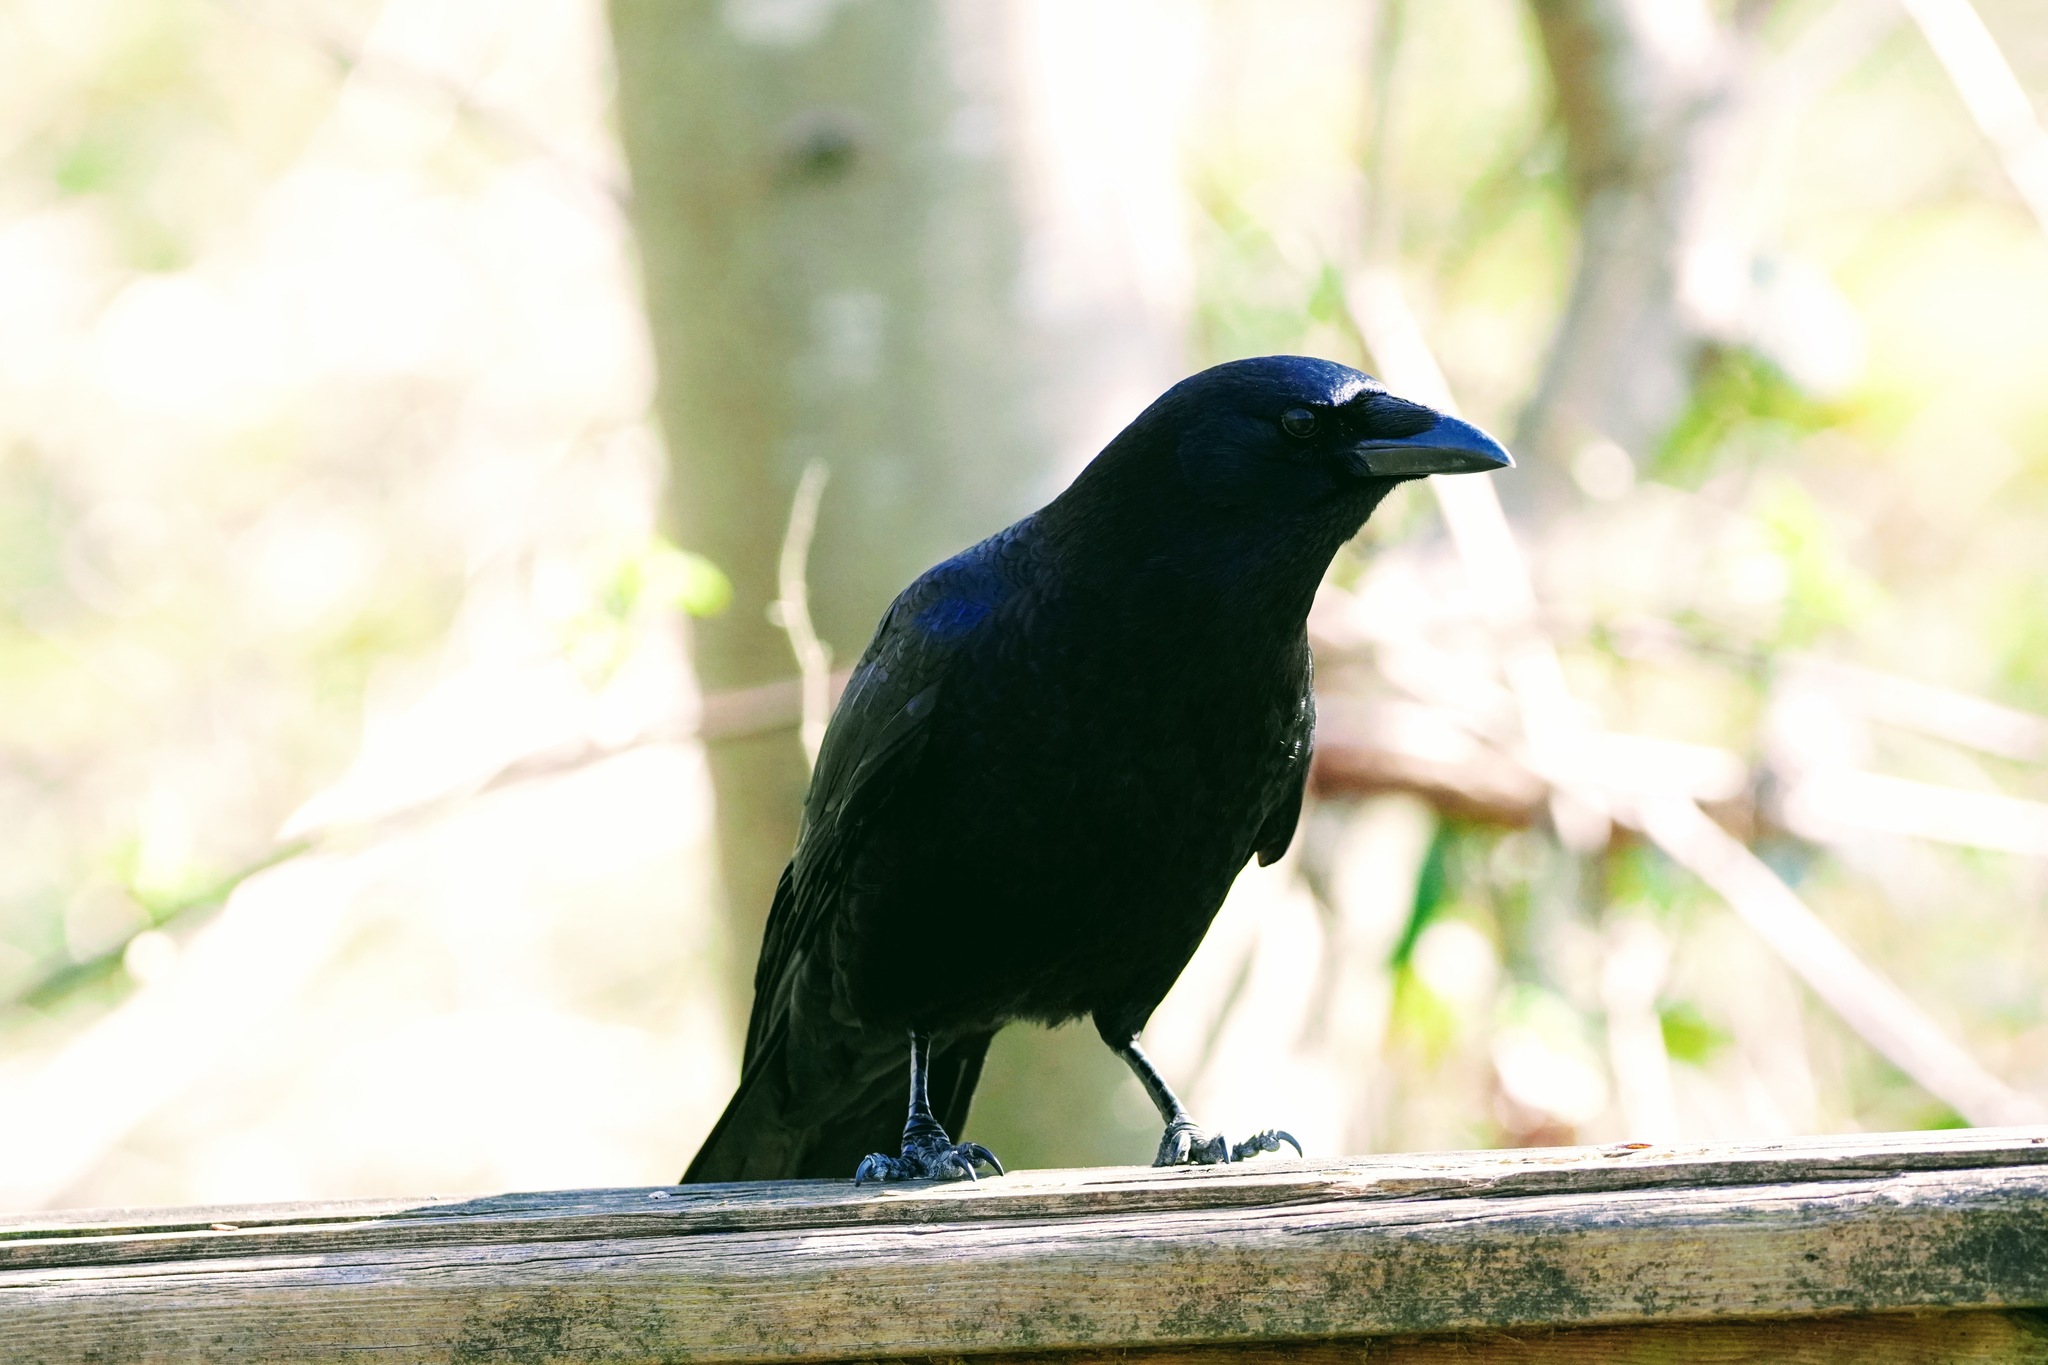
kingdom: Animalia
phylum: Chordata
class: Aves
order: Passeriformes
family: Corvidae
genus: Corvus
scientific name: Corvus brachyrhynchos
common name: American crow
